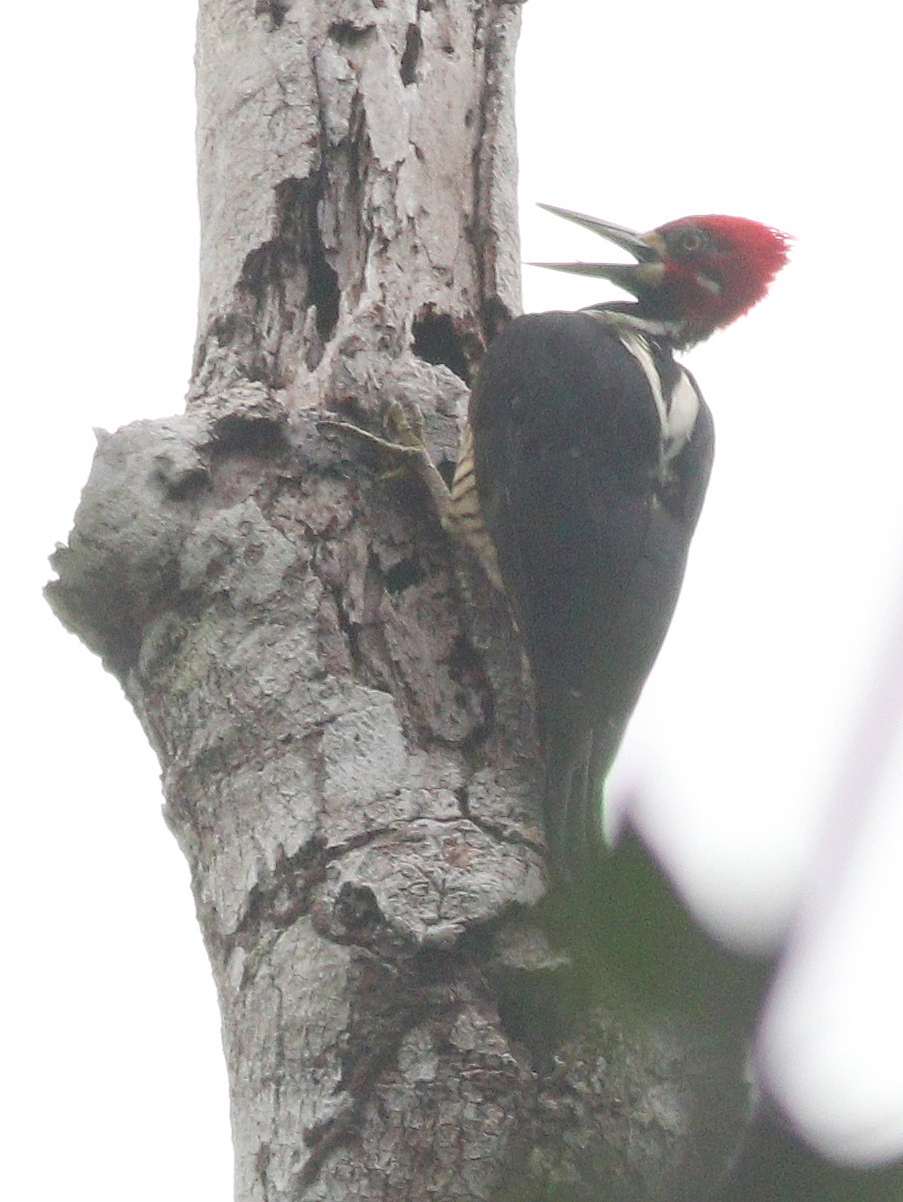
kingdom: Animalia
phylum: Chordata
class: Aves
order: Piciformes
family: Picidae
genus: Campephilus
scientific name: Campephilus melanoleucos
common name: Crimson-crested woodpecker
